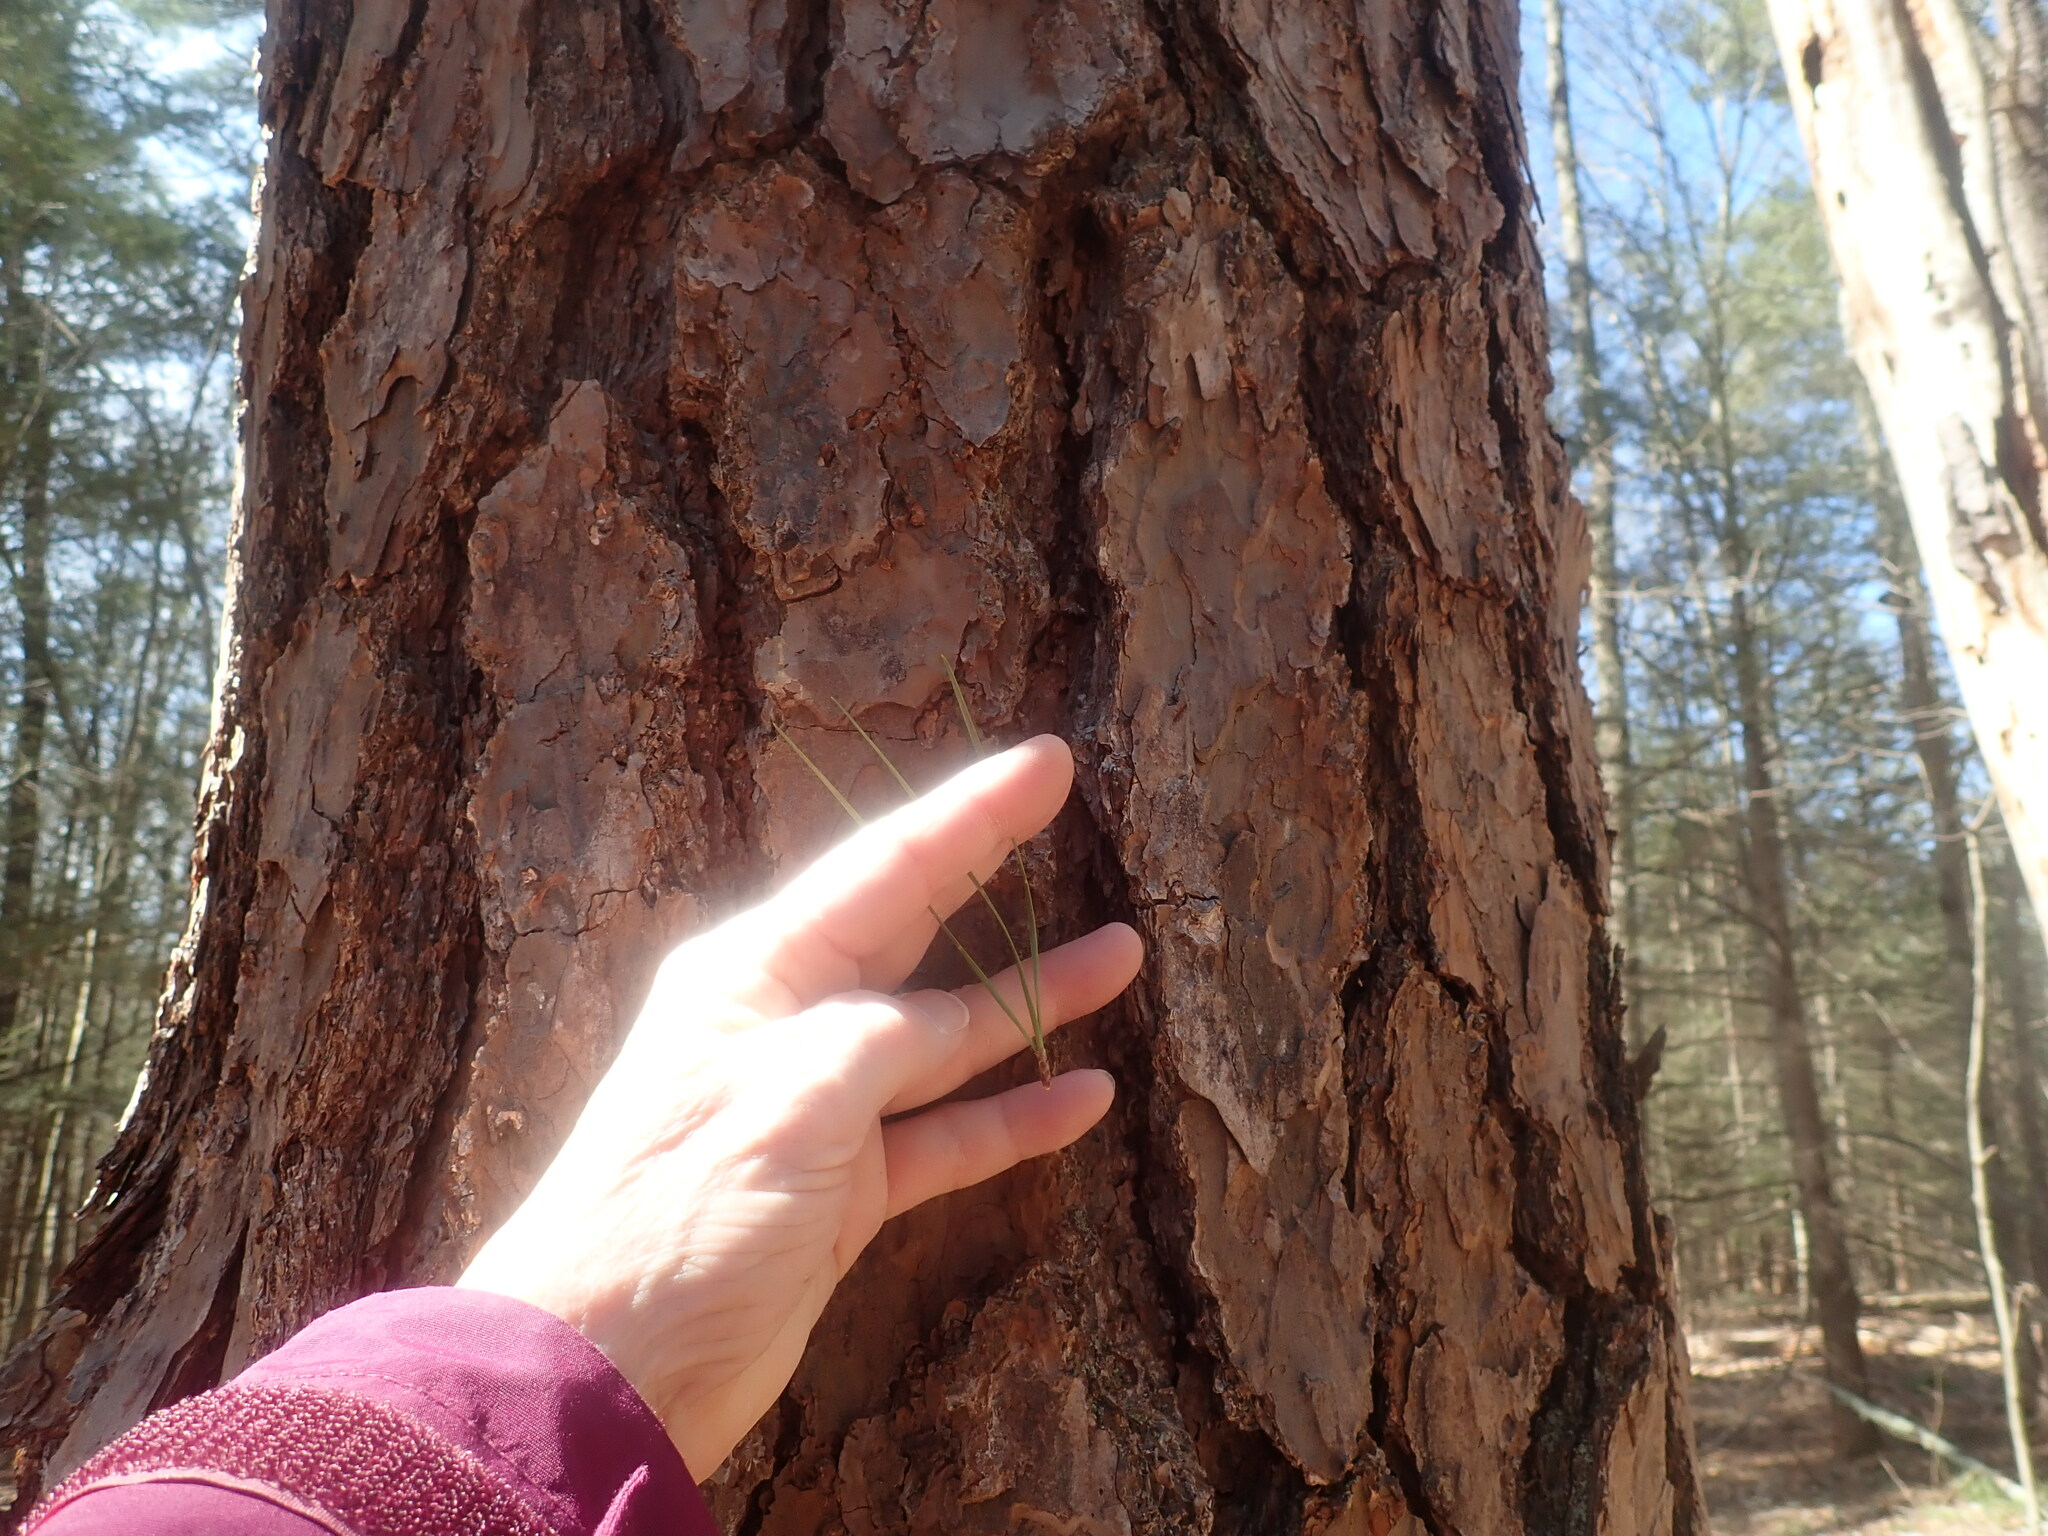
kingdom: Plantae
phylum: Tracheophyta
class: Pinopsida
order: Pinales
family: Pinaceae
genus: Pinus
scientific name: Pinus rigida
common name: Pitch pine
